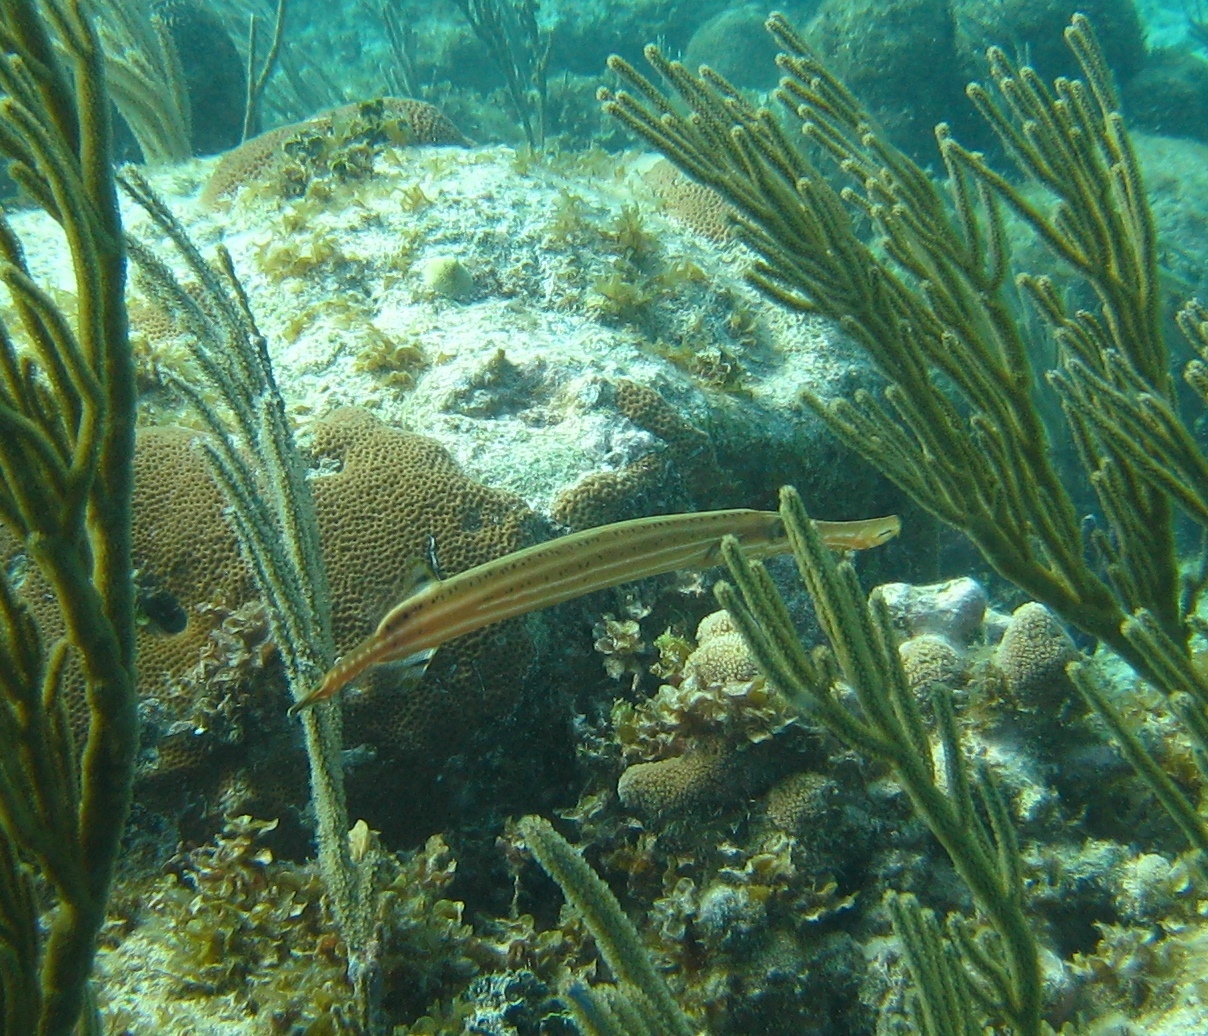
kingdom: Animalia
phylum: Chordata
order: Beryciformes
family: Holocentridae
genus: Holocentrus
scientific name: Holocentrus rufus
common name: Longspine squirrelfish
